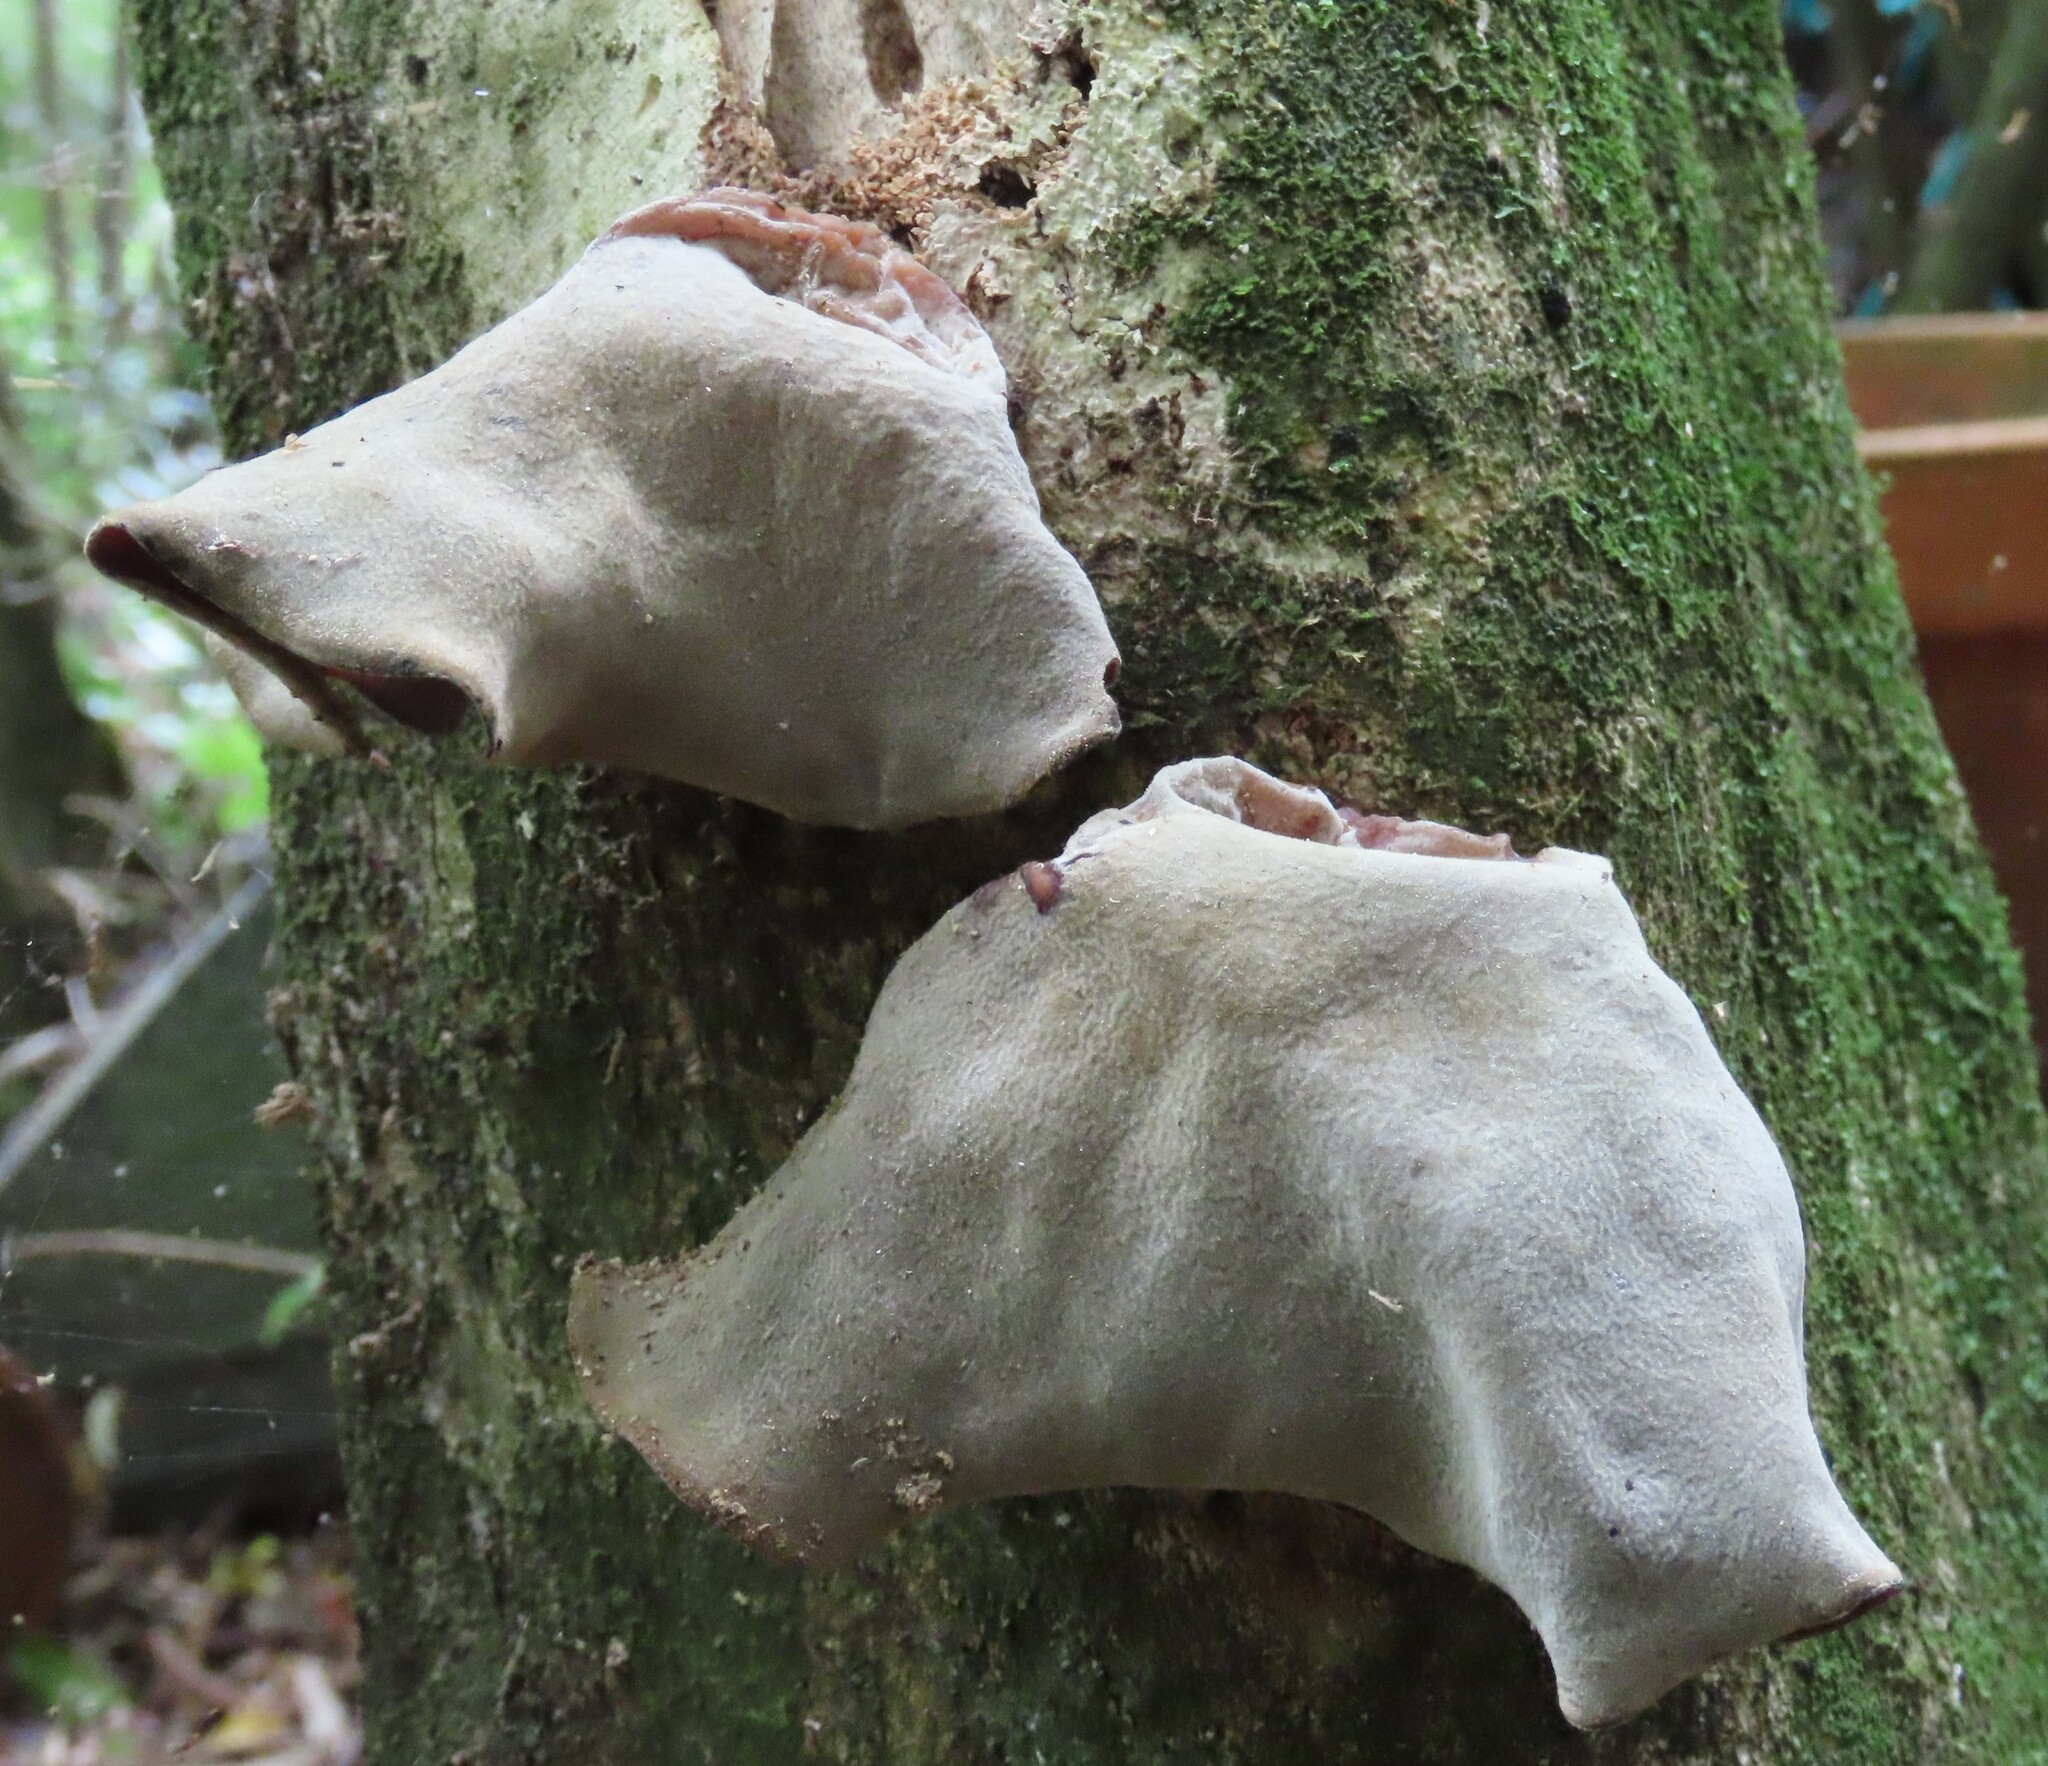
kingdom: Fungi
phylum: Basidiomycota
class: Agaricomycetes
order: Auriculariales
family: Auriculariaceae
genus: Auricularia
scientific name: Auricularia cornea
